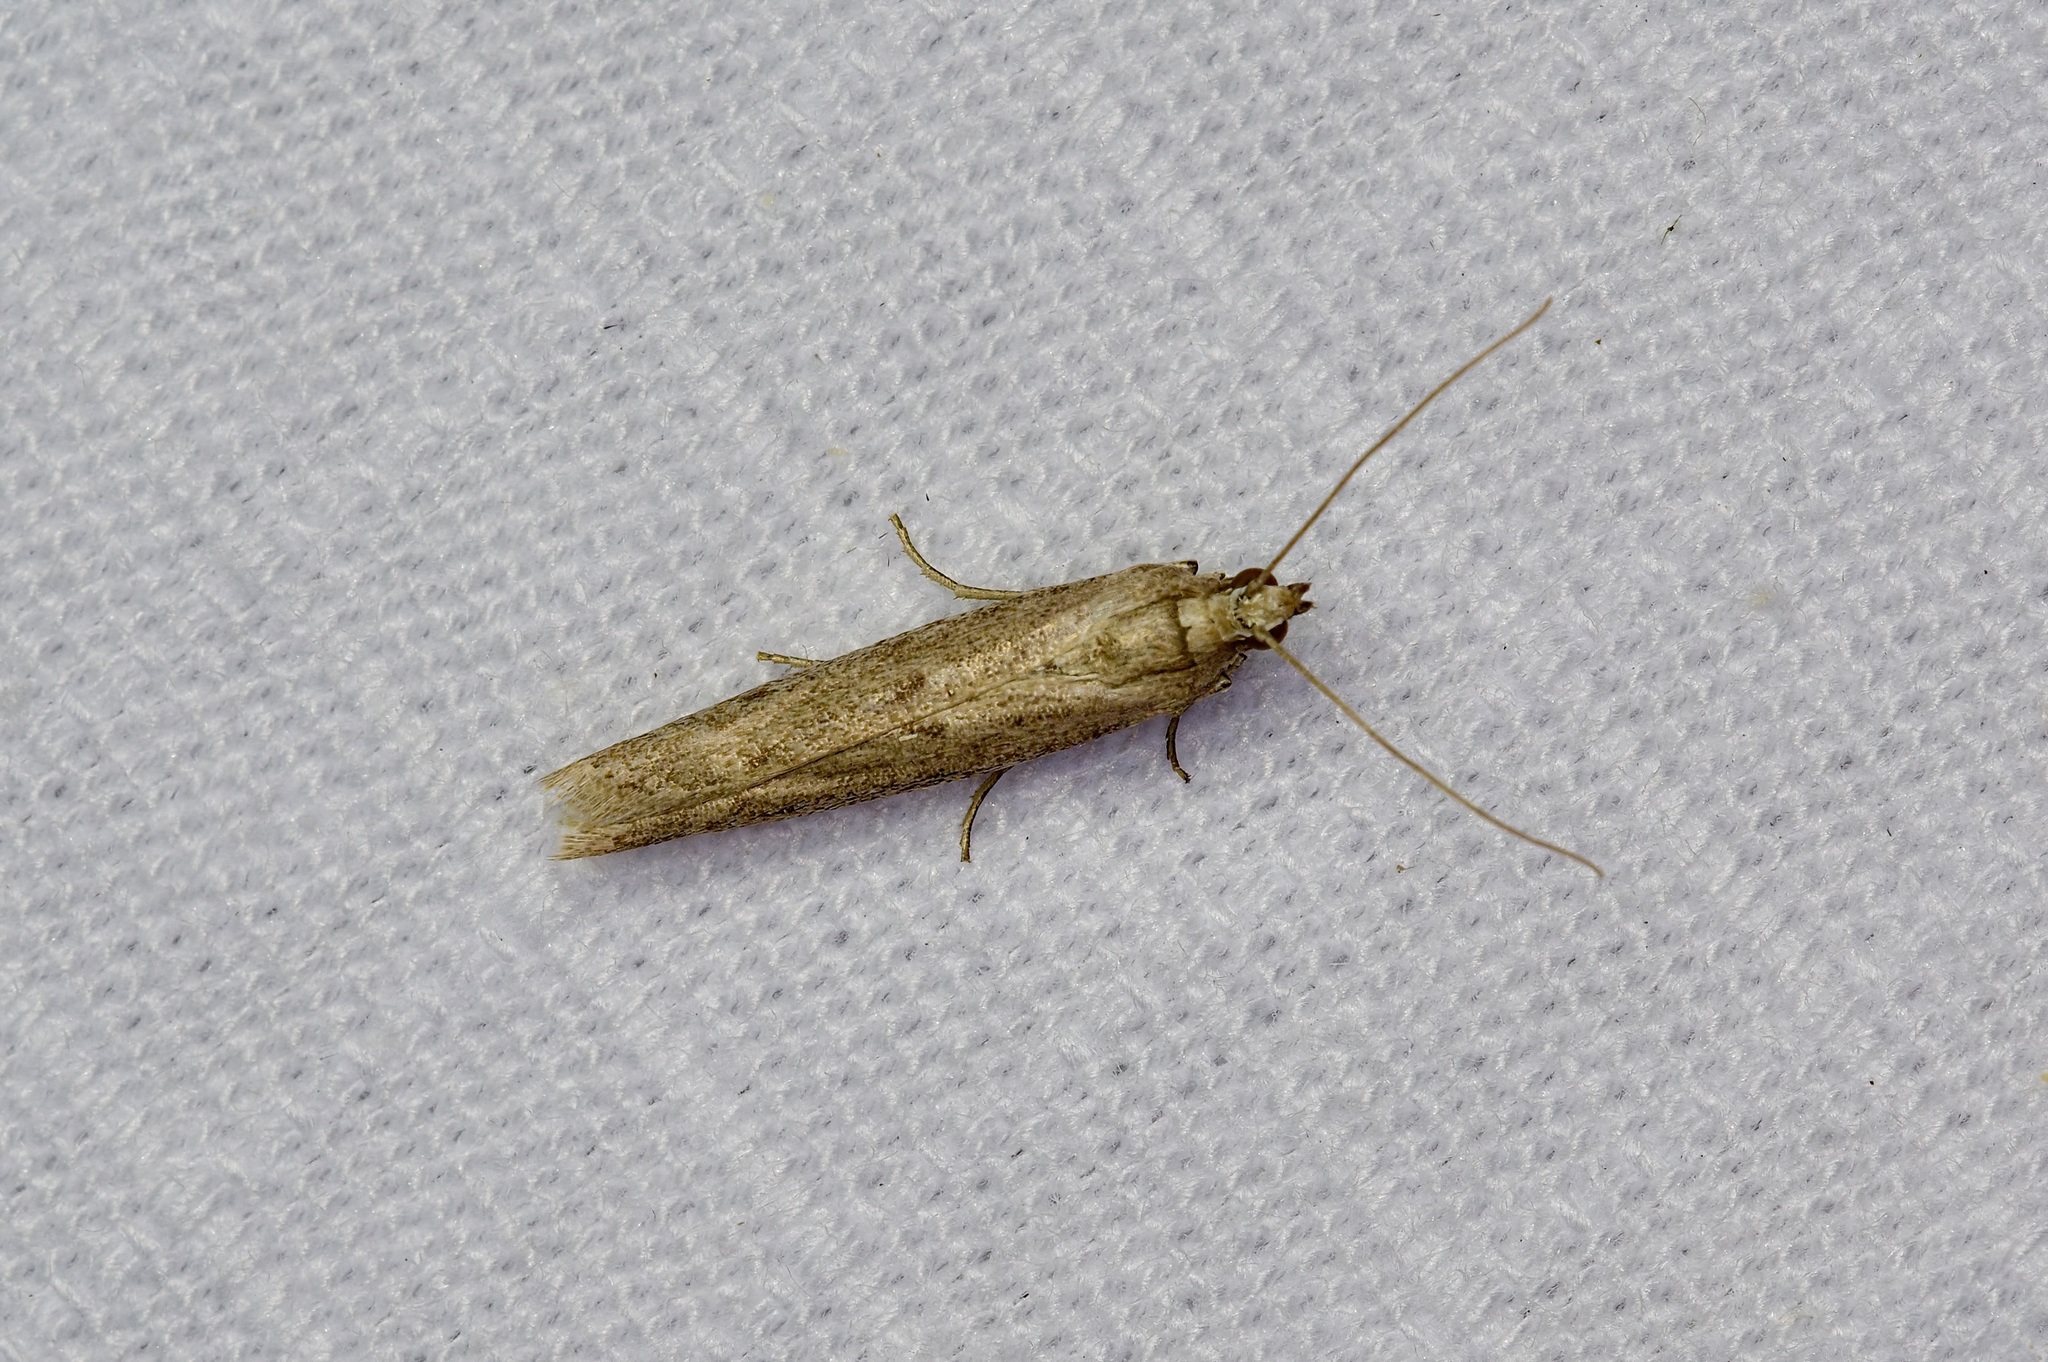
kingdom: Animalia
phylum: Arthropoda
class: Insecta
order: Lepidoptera
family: Pyralidae
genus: Homoeosoma
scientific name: Homoeosoma electella
